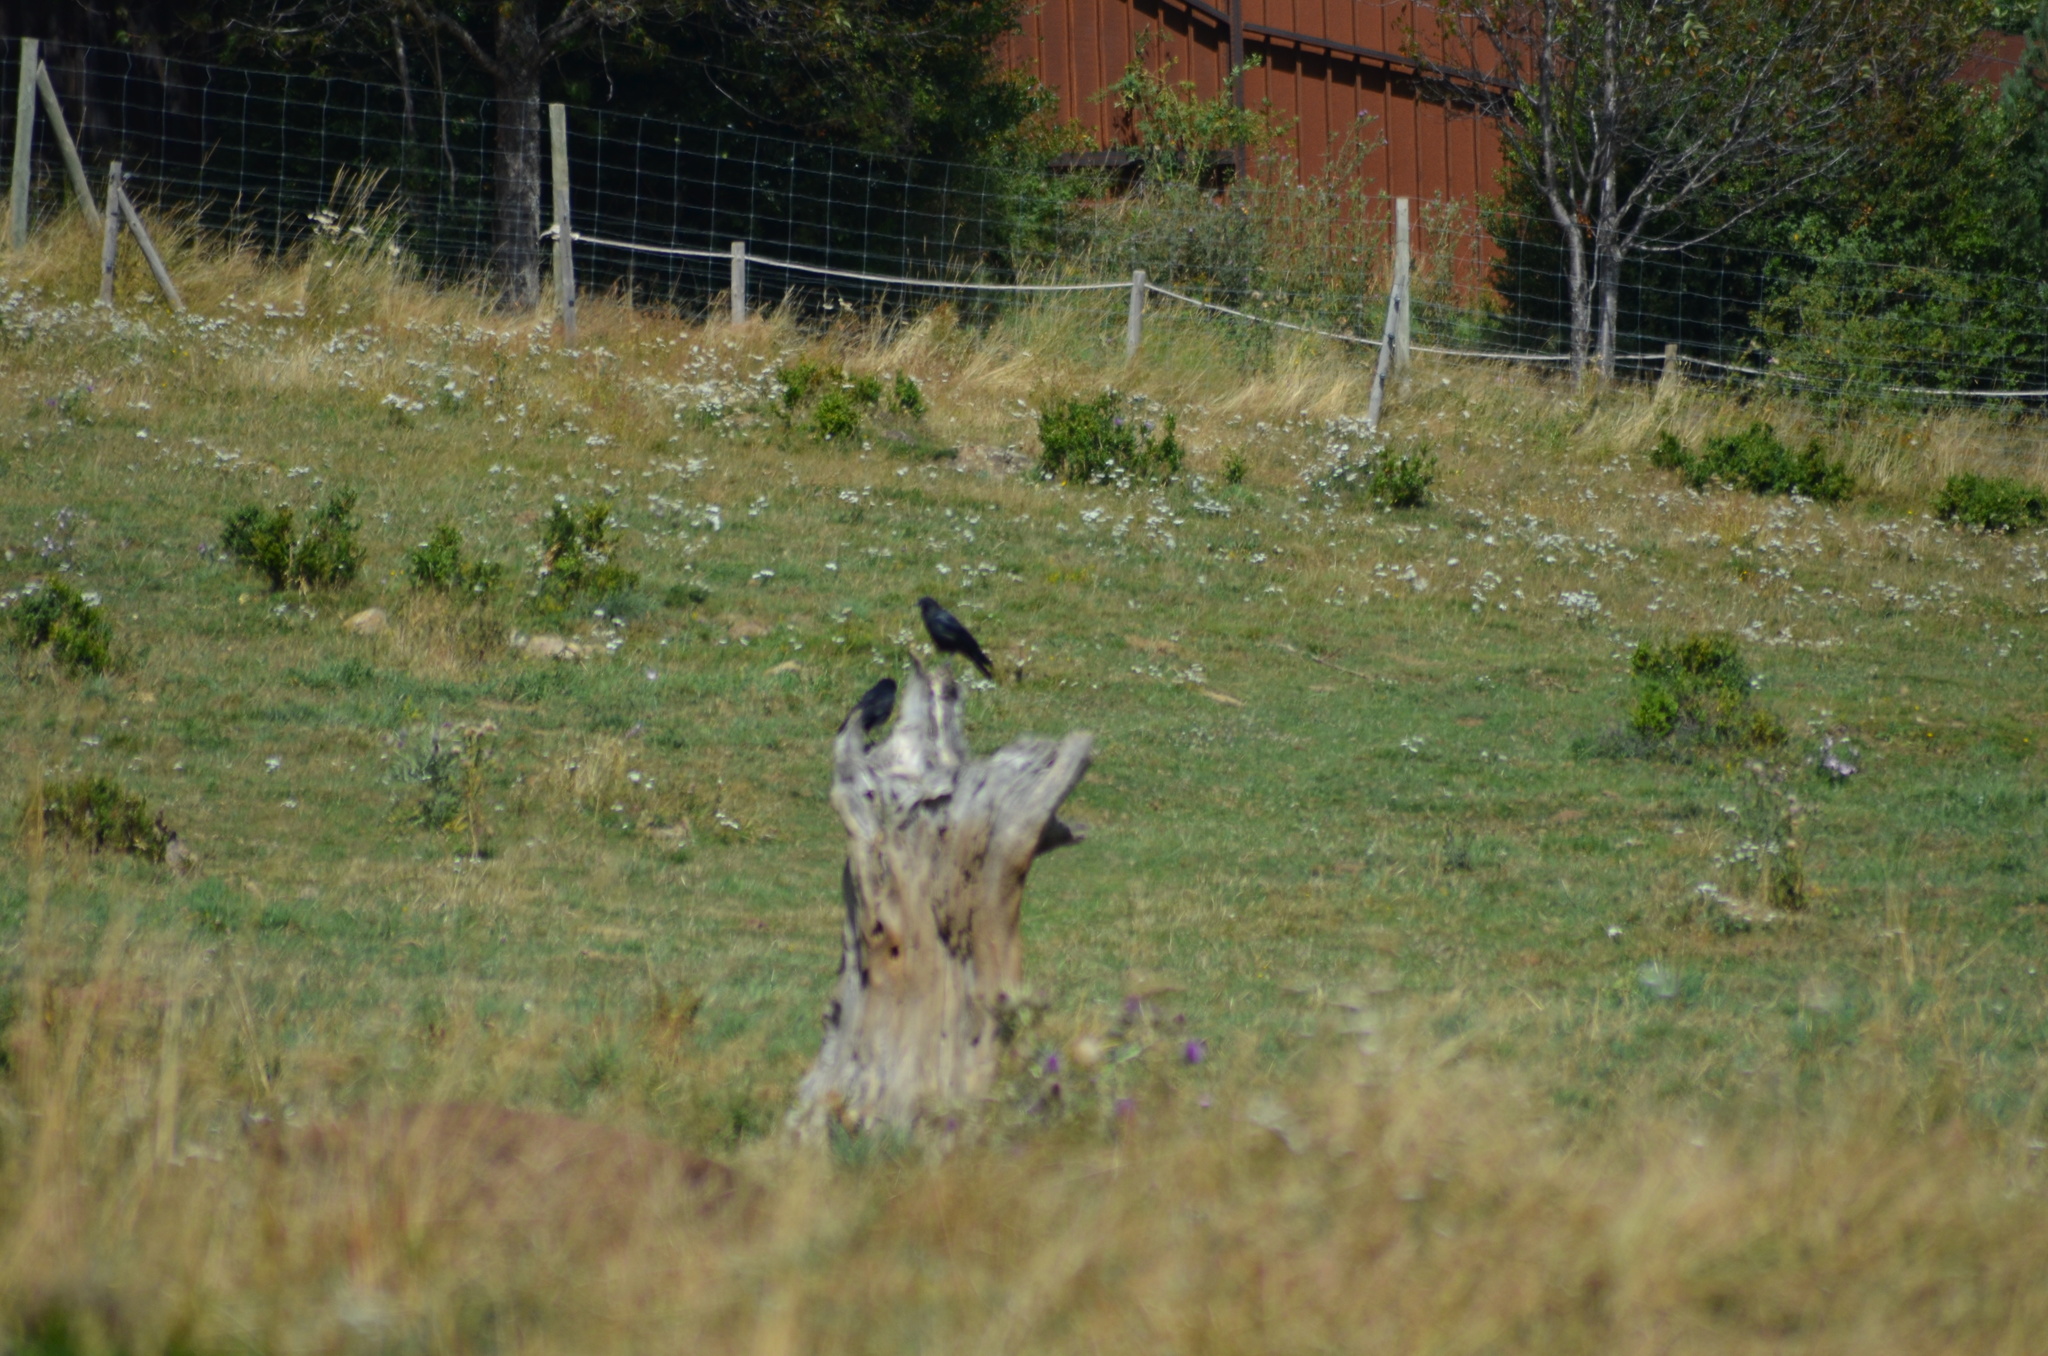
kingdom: Animalia
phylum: Chordata
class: Aves
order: Passeriformes
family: Corvidae
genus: Corvus
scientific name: Corvus corax
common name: Common raven
